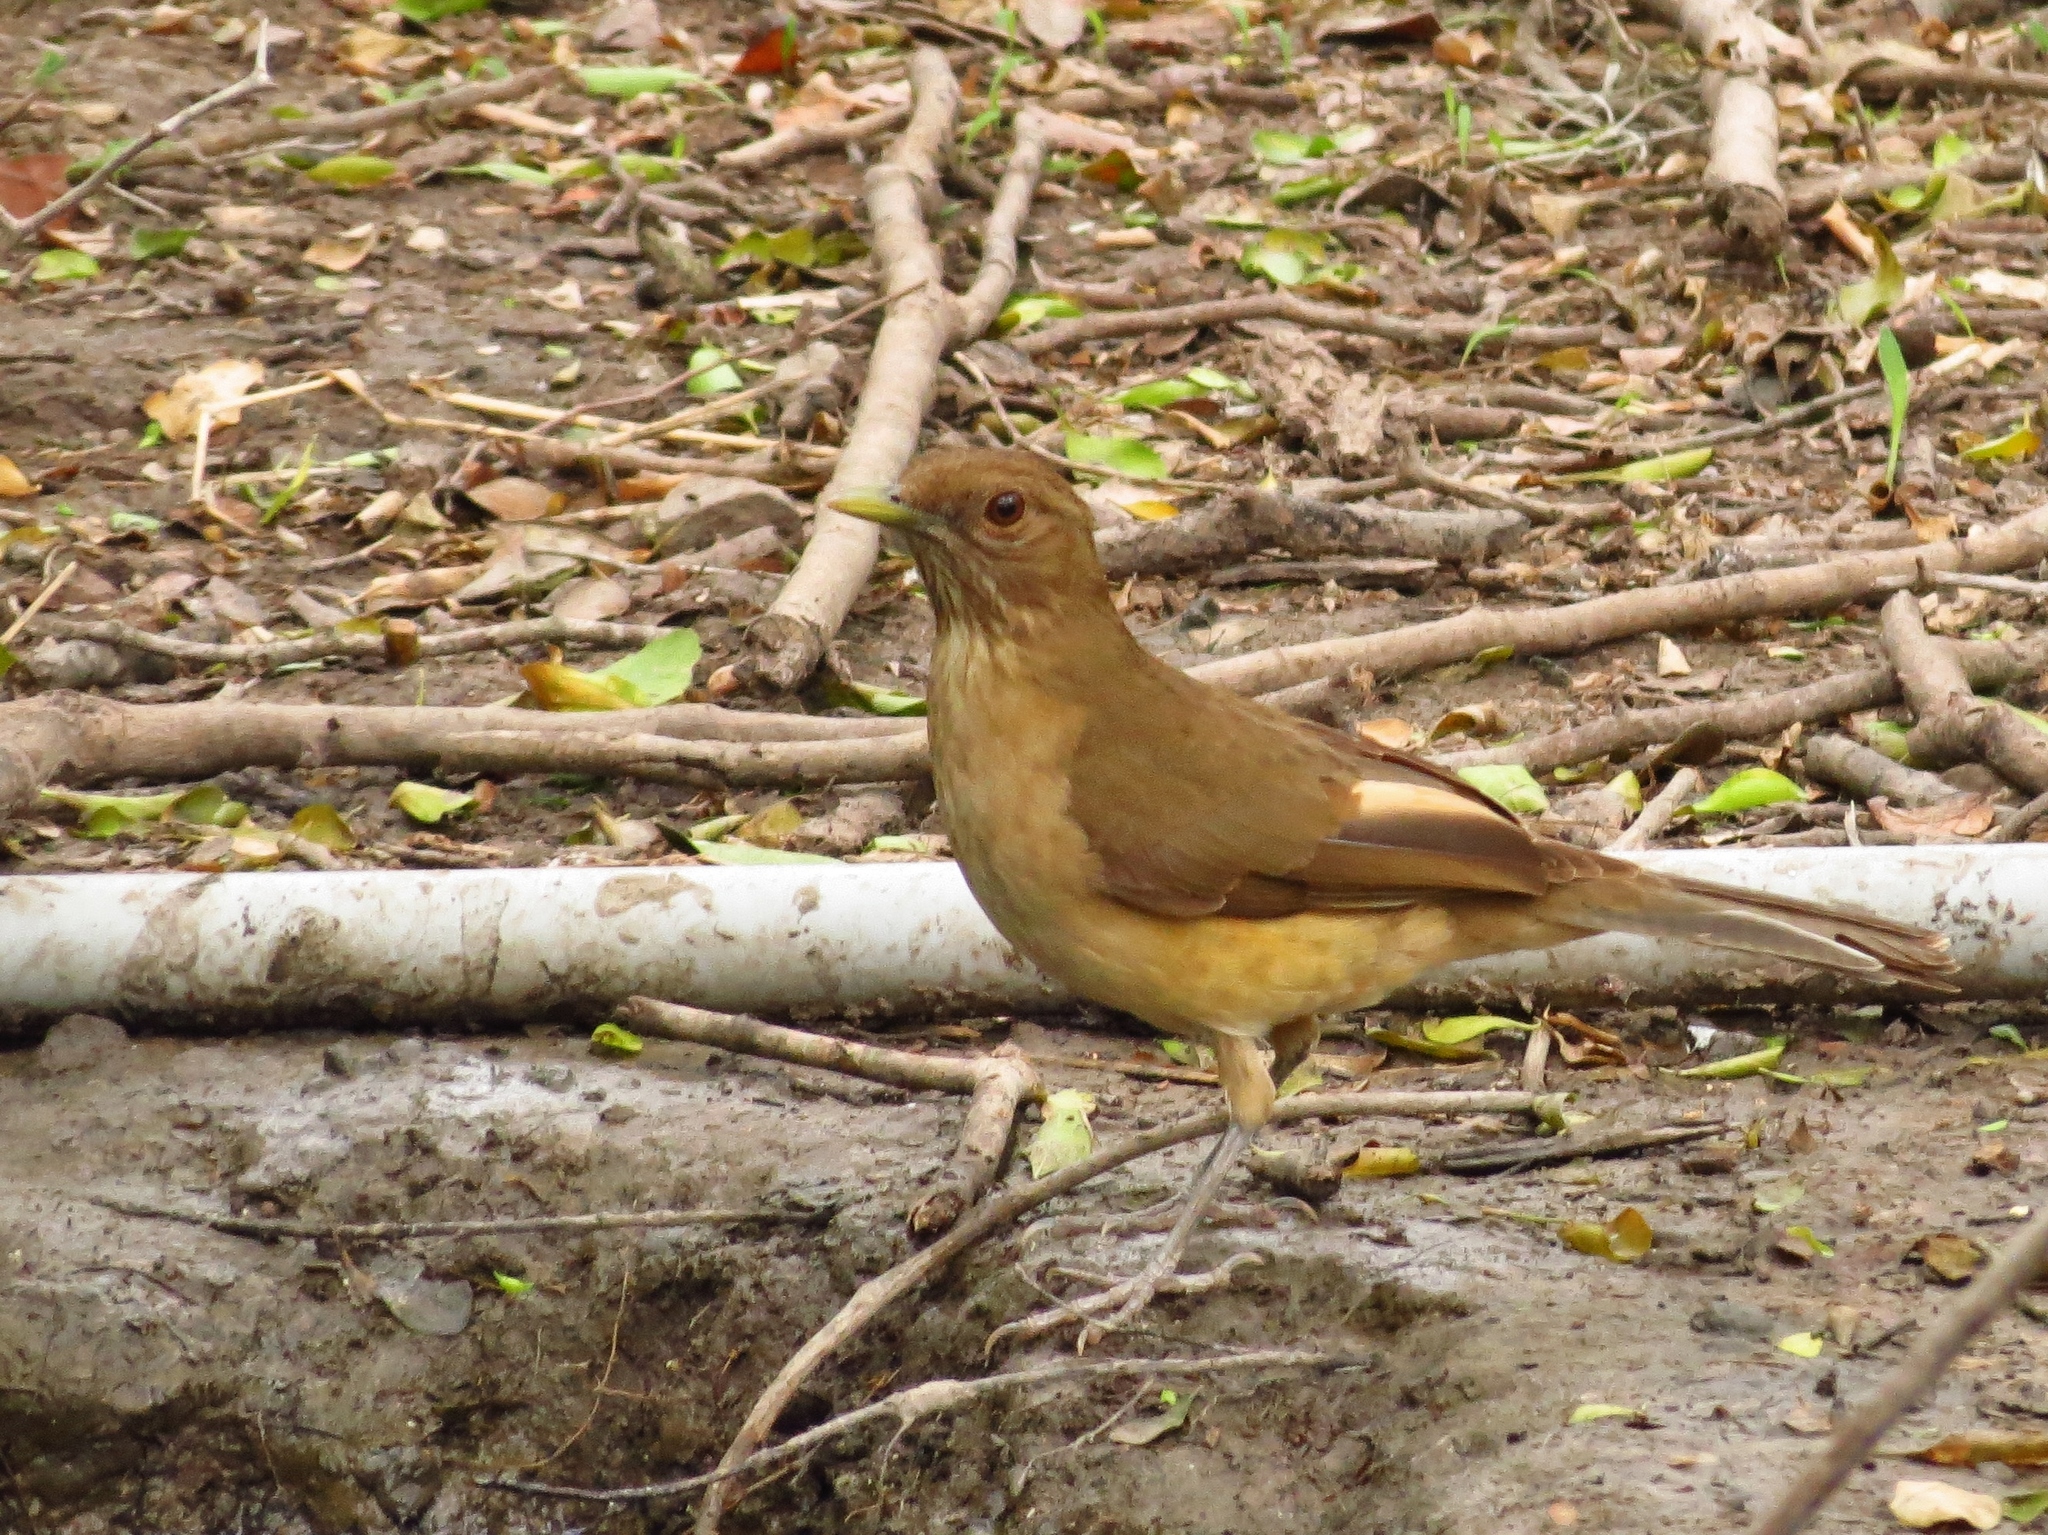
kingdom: Animalia
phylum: Chordata
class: Aves
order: Passeriformes
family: Turdidae
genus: Turdus
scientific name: Turdus grayi
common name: Clay-colored thrush
